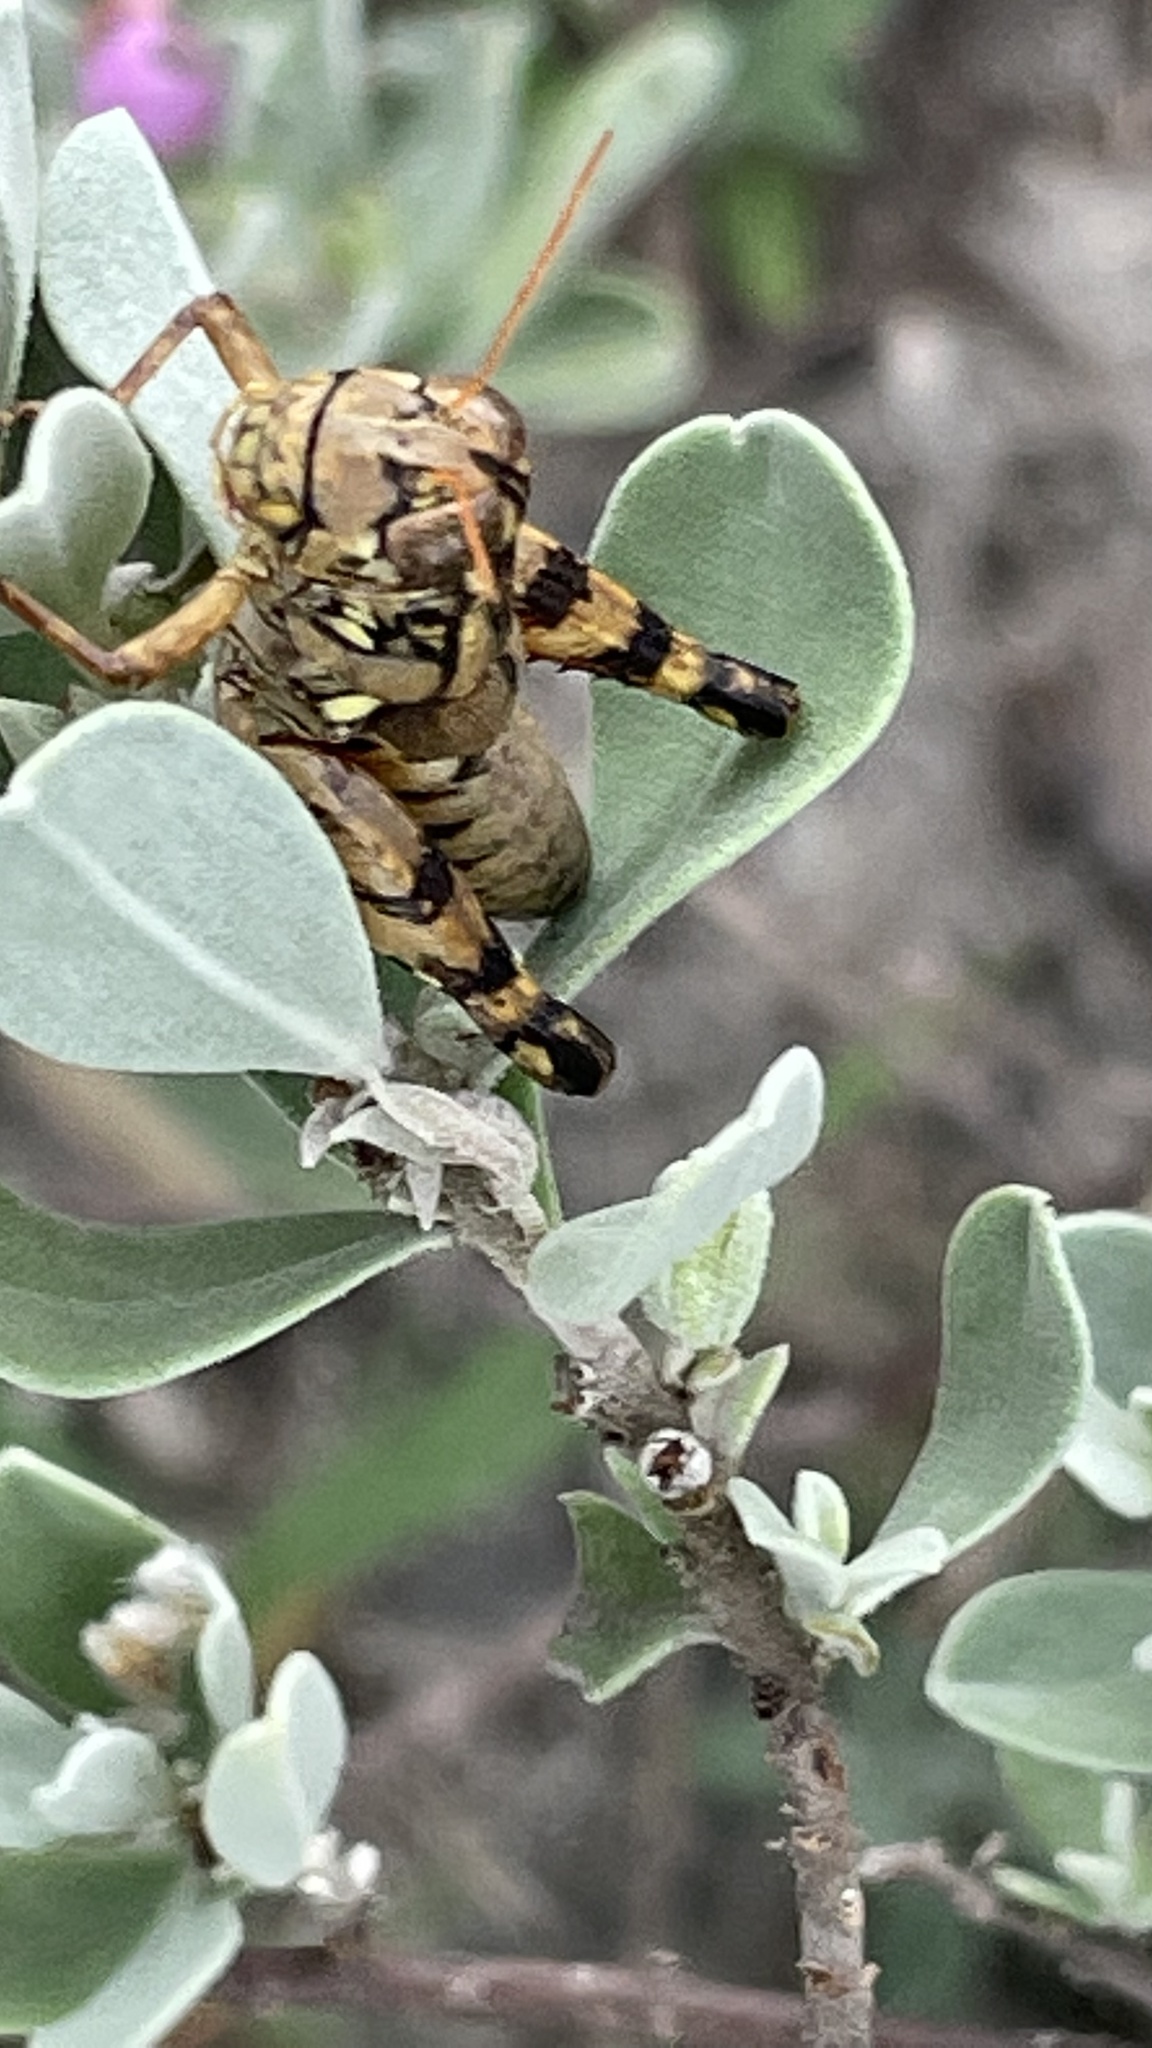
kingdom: Animalia
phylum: Arthropoda
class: Insecta
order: Orthoptera
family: Acrididae
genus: Agroecotettix
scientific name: Agroecotettix modestus
